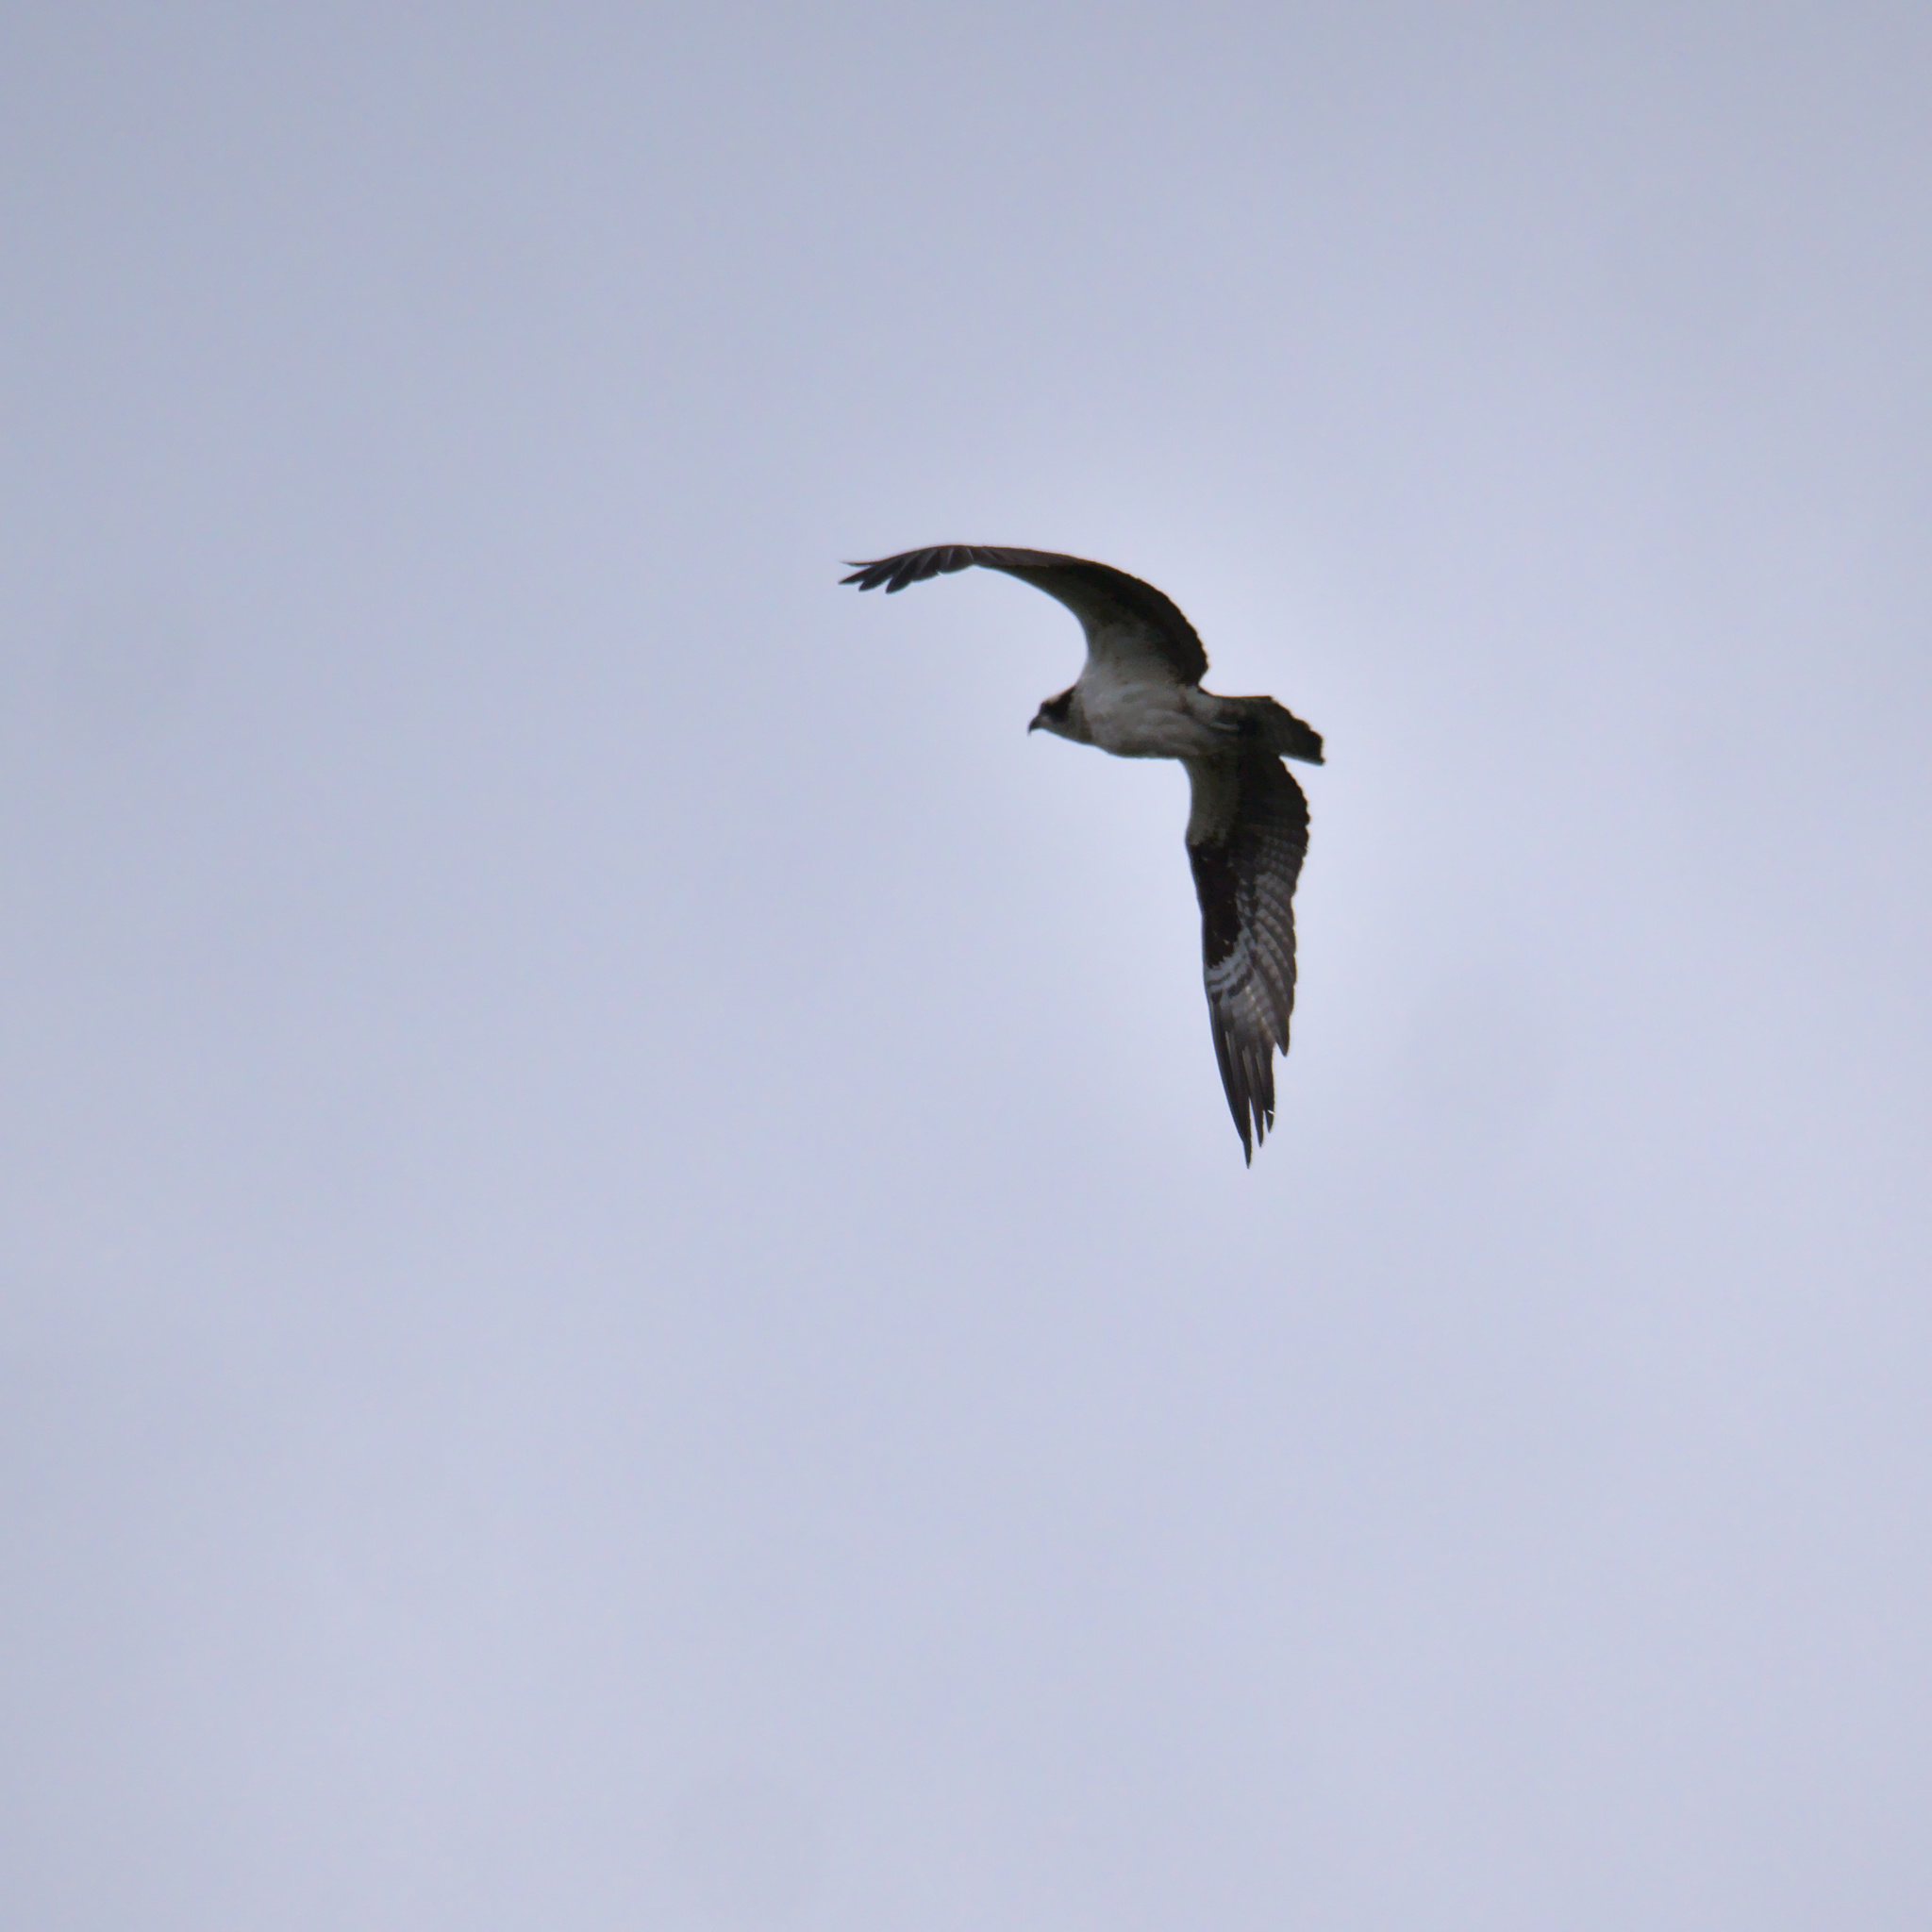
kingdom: Animalia
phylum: Chordata
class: Aves
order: Accipitriformes
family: Pandionidae
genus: Pandion
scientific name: Pandion haliaetus
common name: Osprey
